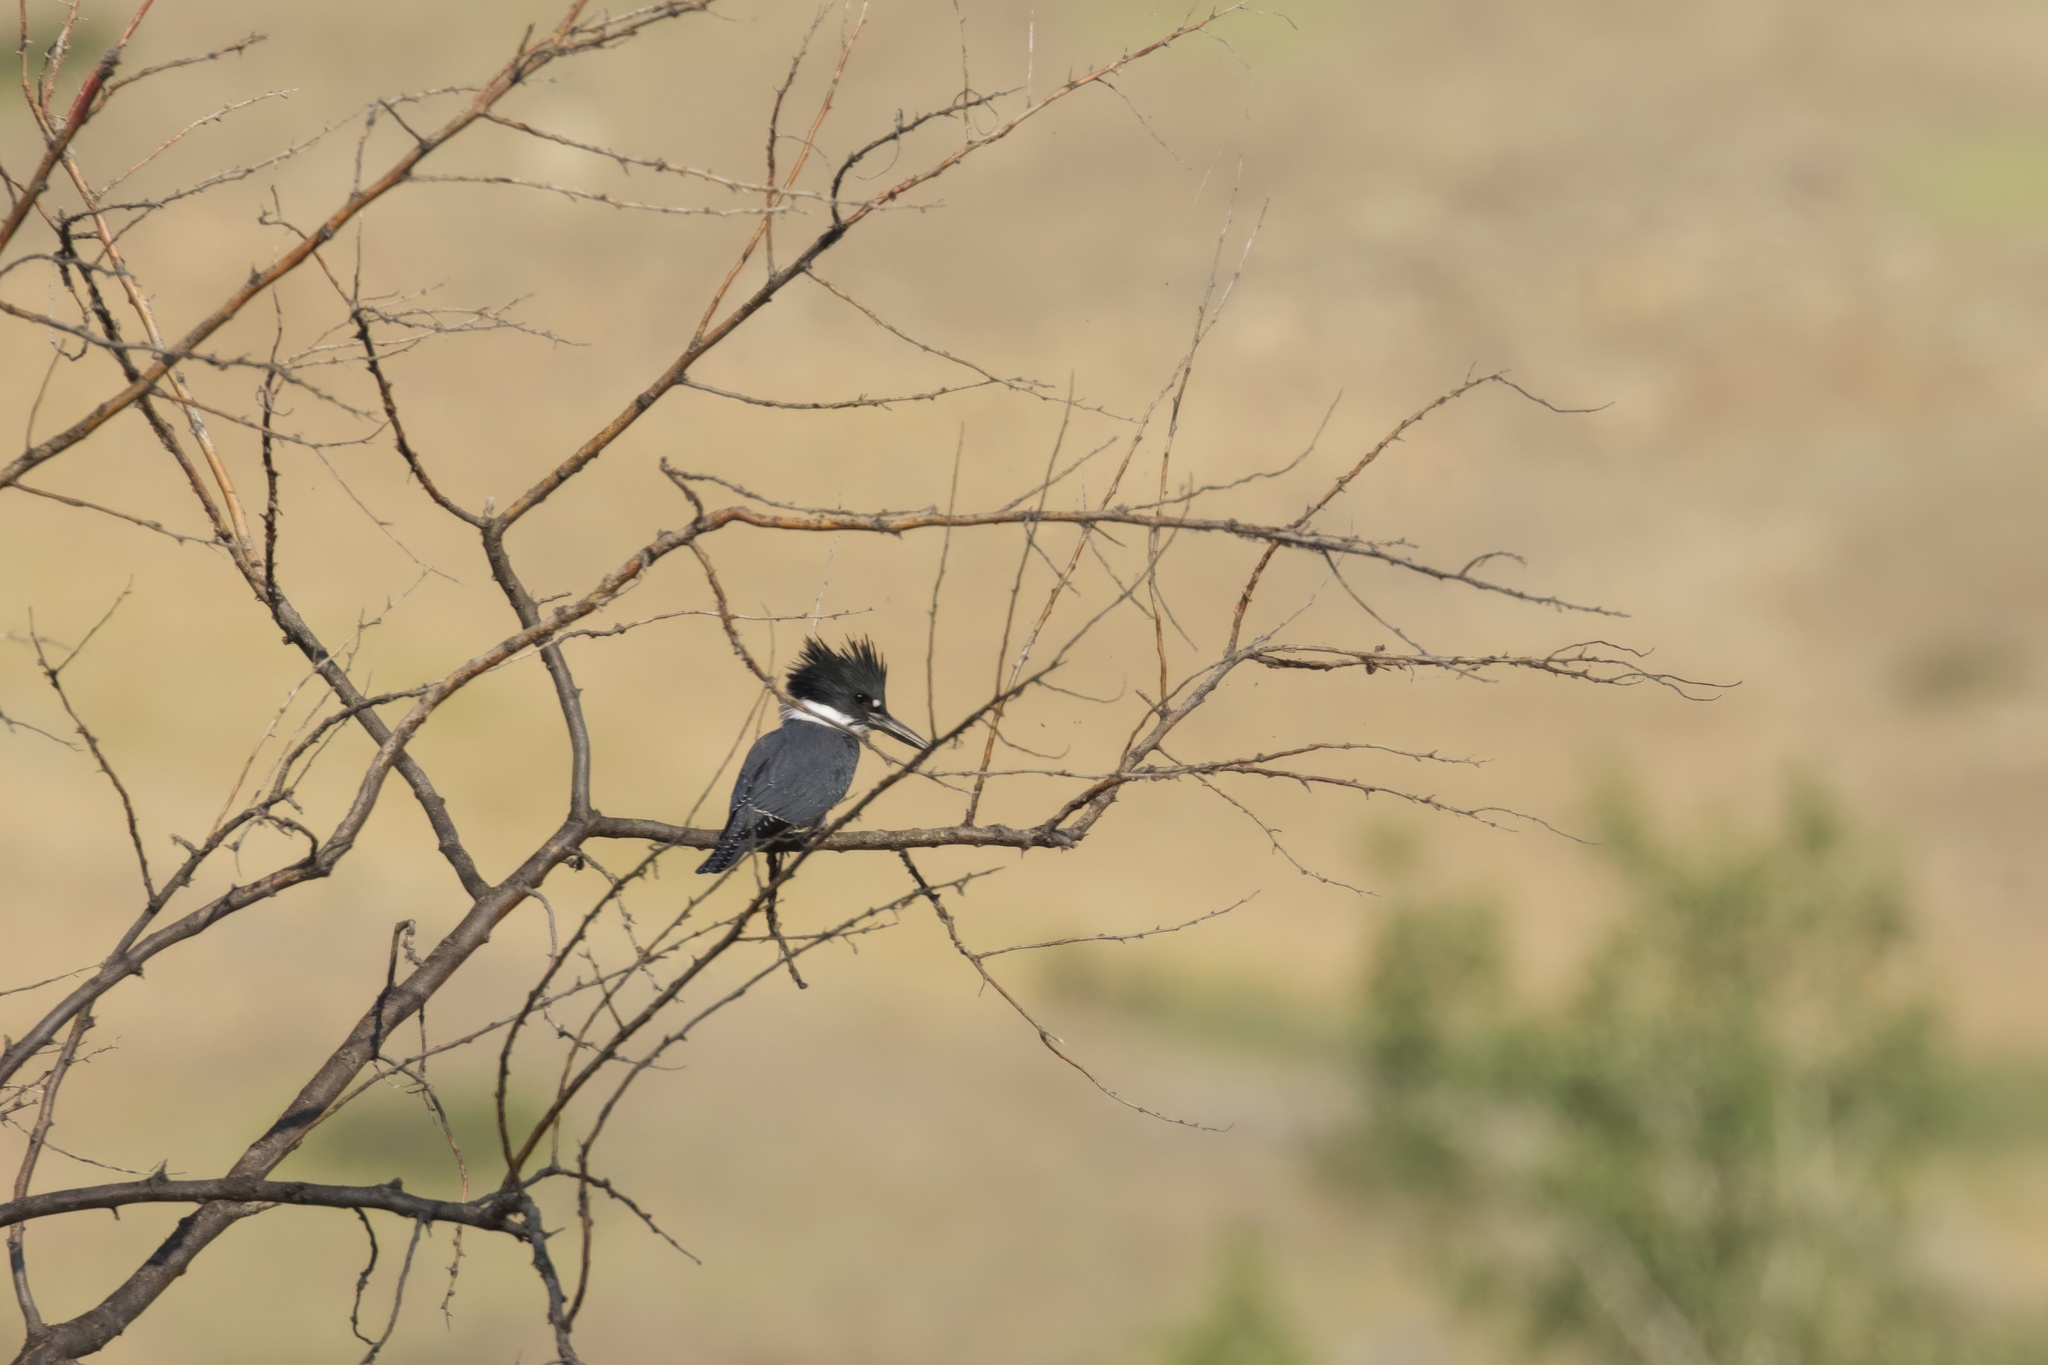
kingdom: Animalia
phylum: Chordata
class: Aves
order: Coraciiformes
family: Alcedinidae
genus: Megaceryle
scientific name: Megaceryle alcyon
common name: Belted kingfisher
